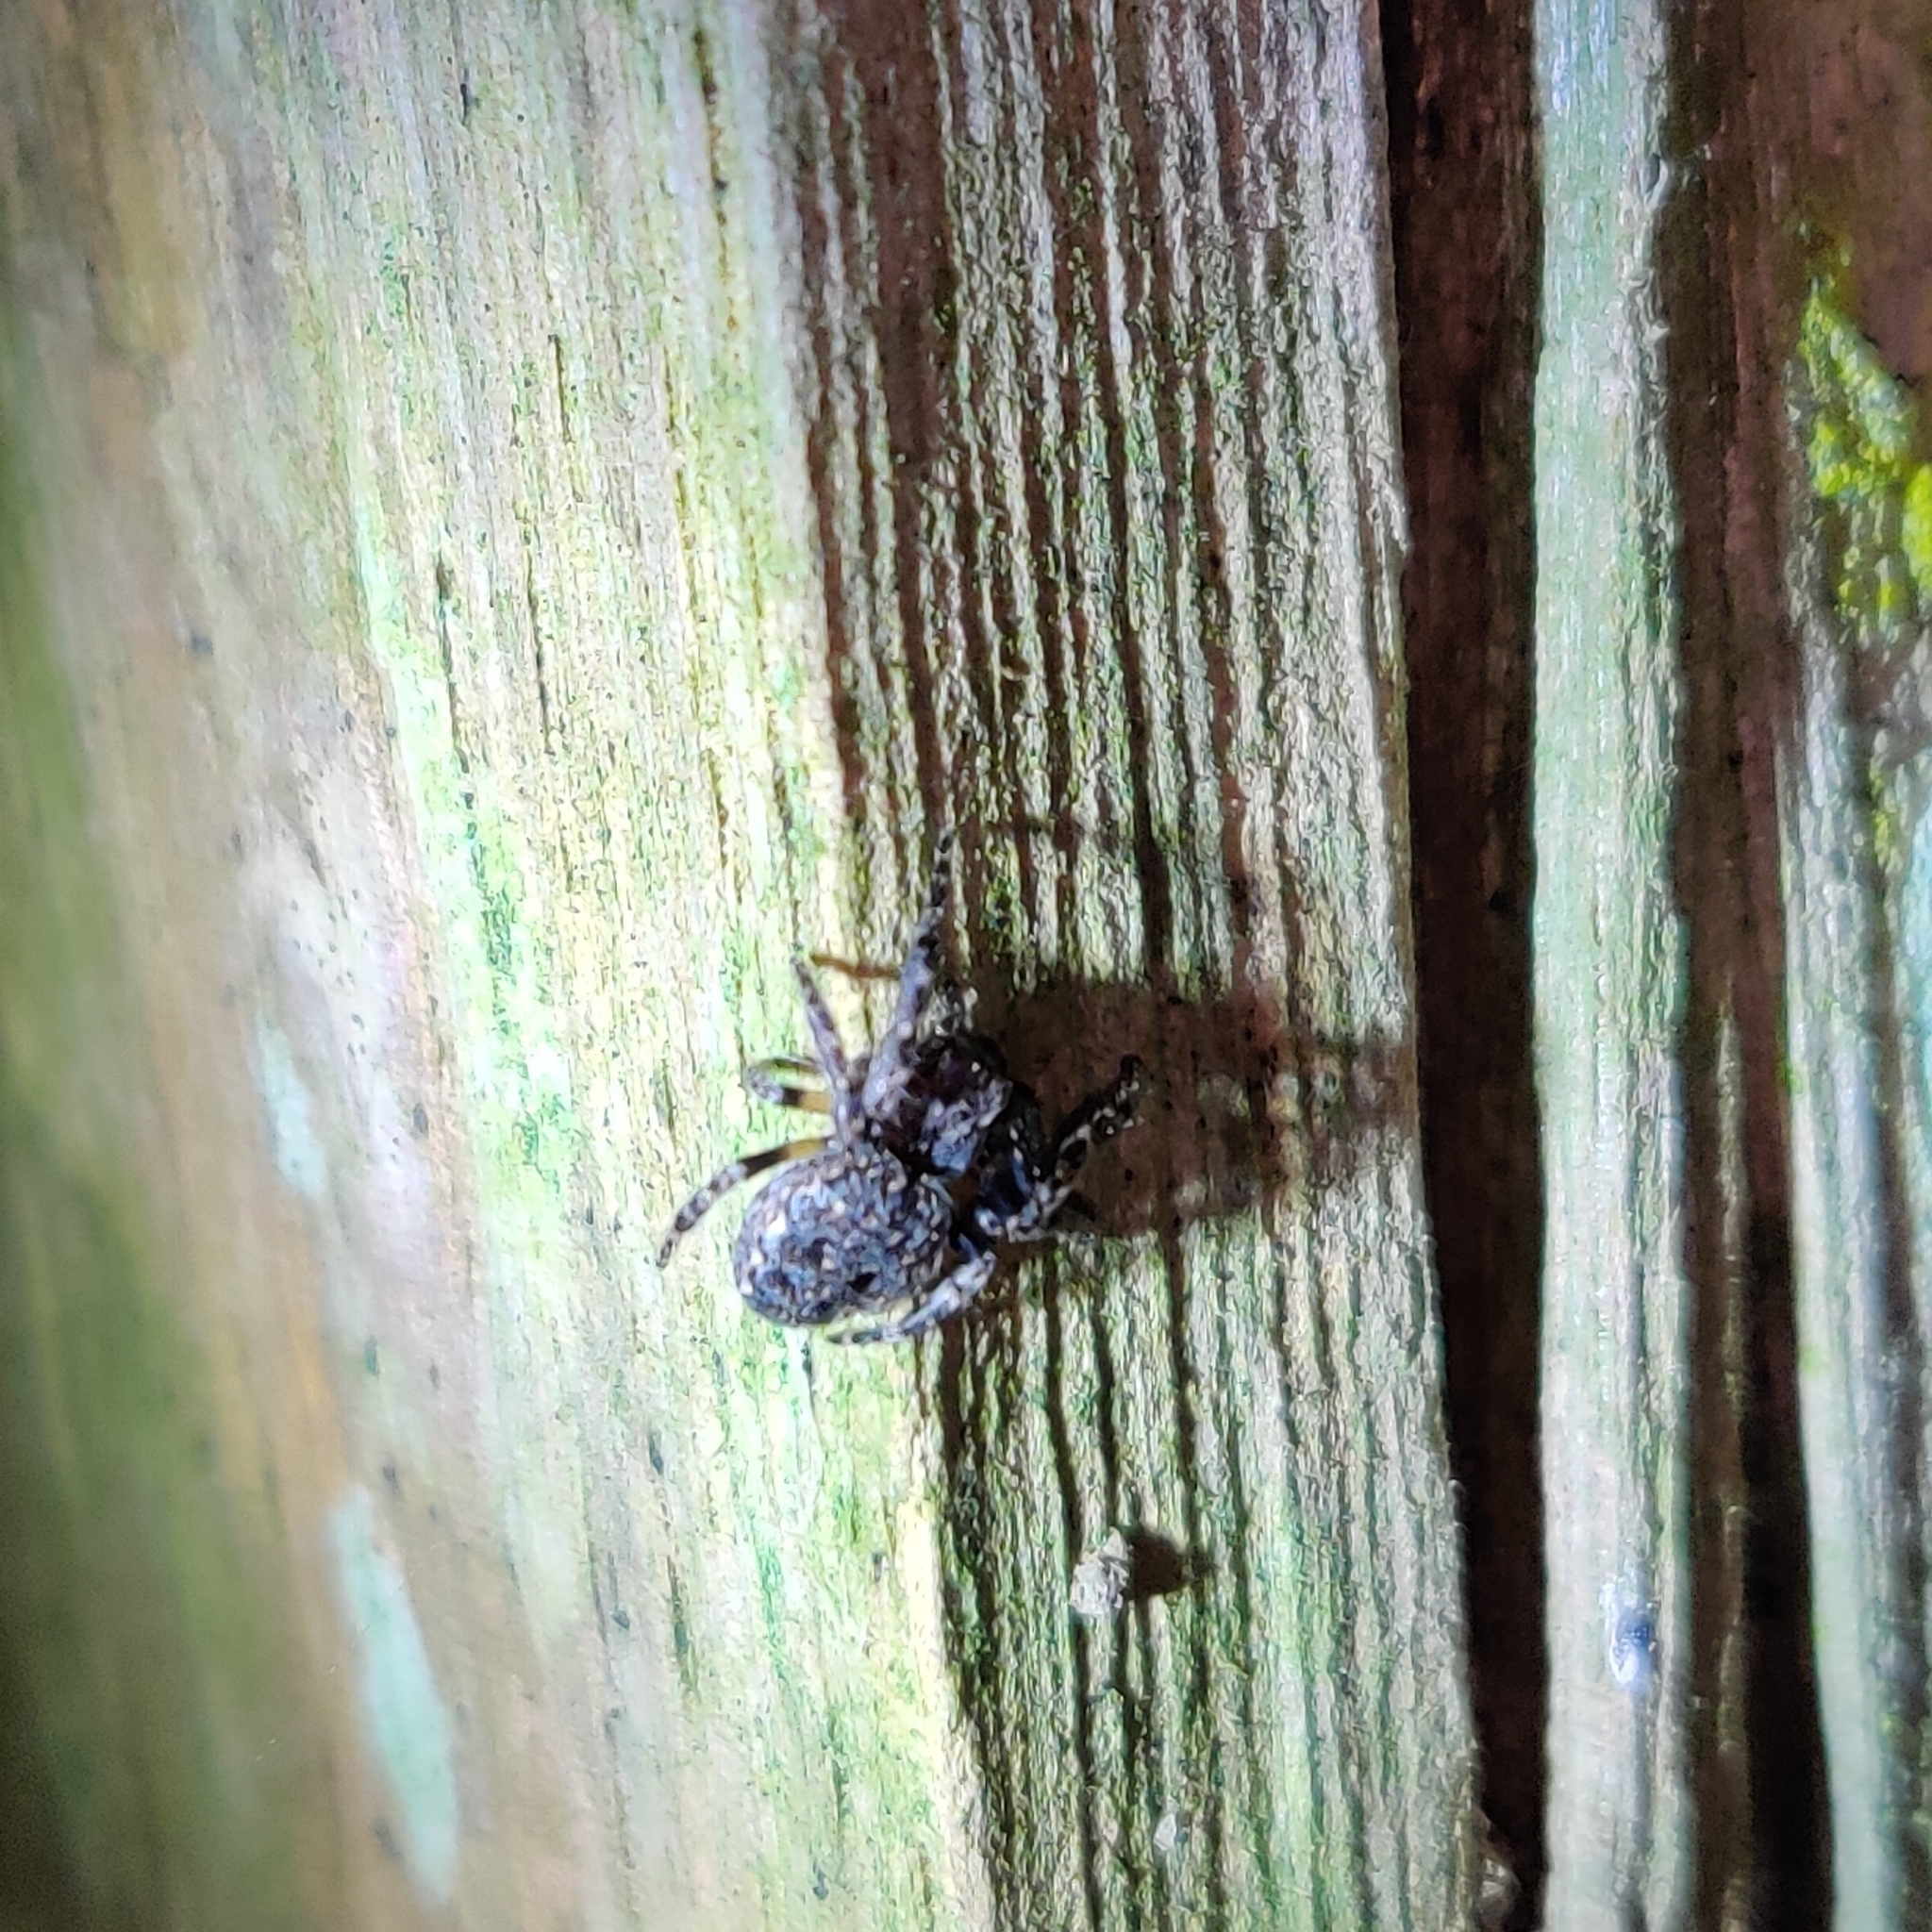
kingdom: Animalia
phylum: Arthropoda
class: Arachnida
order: Araneae
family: Araneidae
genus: Nuctenea
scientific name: Nuctenea umbratica
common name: Toad spider
